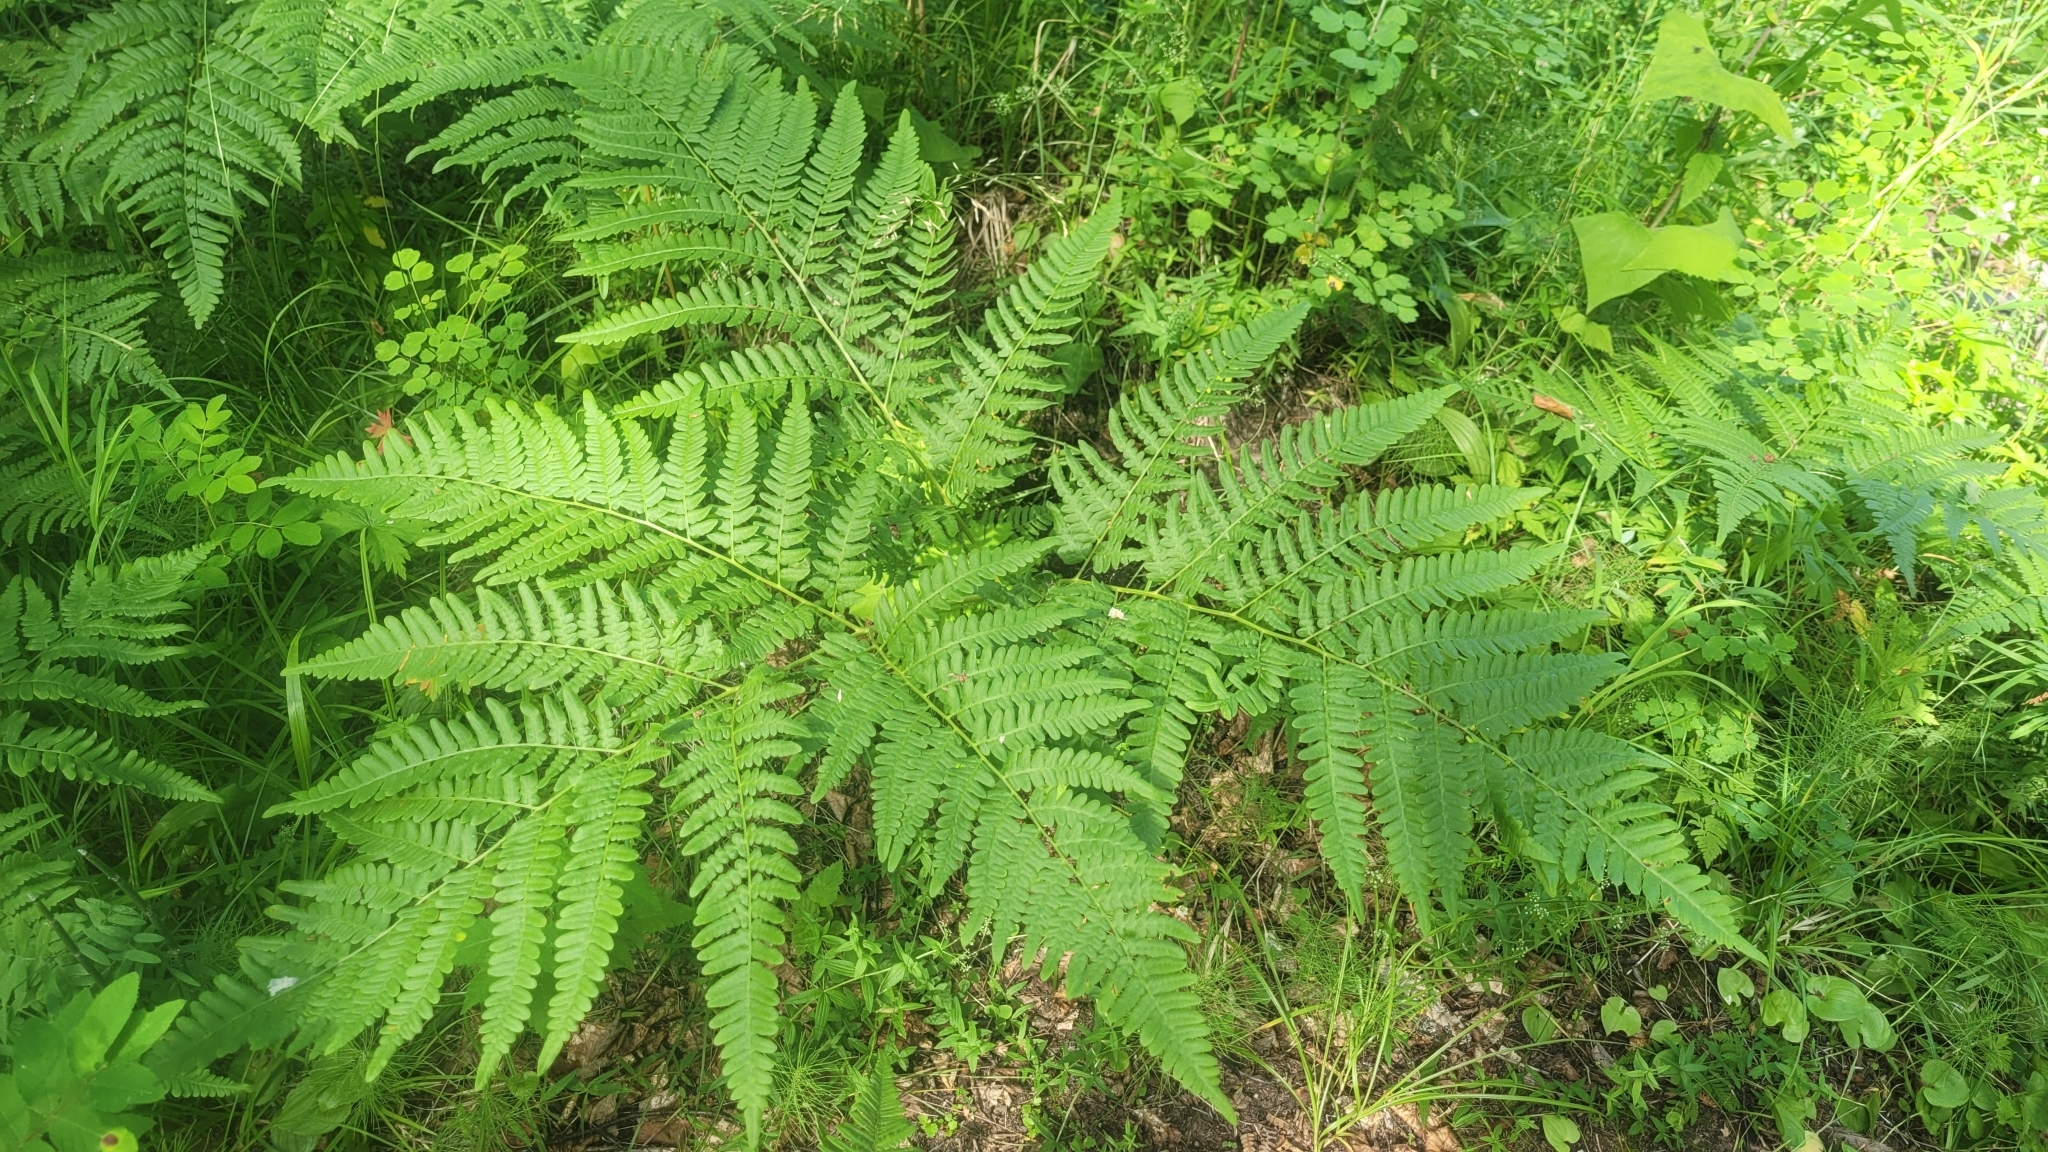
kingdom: Plantae
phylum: Tracheophyta
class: Polypodiopsida
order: Polypodiales
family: Dennstaedtiaceae
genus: Pteridium
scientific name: Pteridium aquilinum
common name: Bracken
